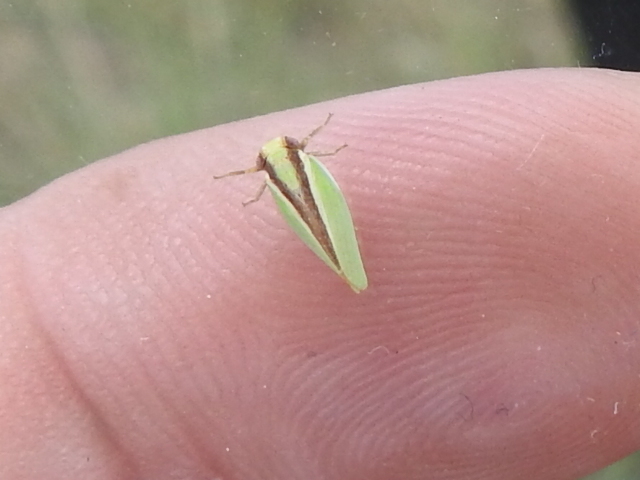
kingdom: Animalia
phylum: Arthropoda
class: Insecta
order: Hemiptera
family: Acanaloniidae
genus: Acanalonia
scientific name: Acanalonia fasciata
